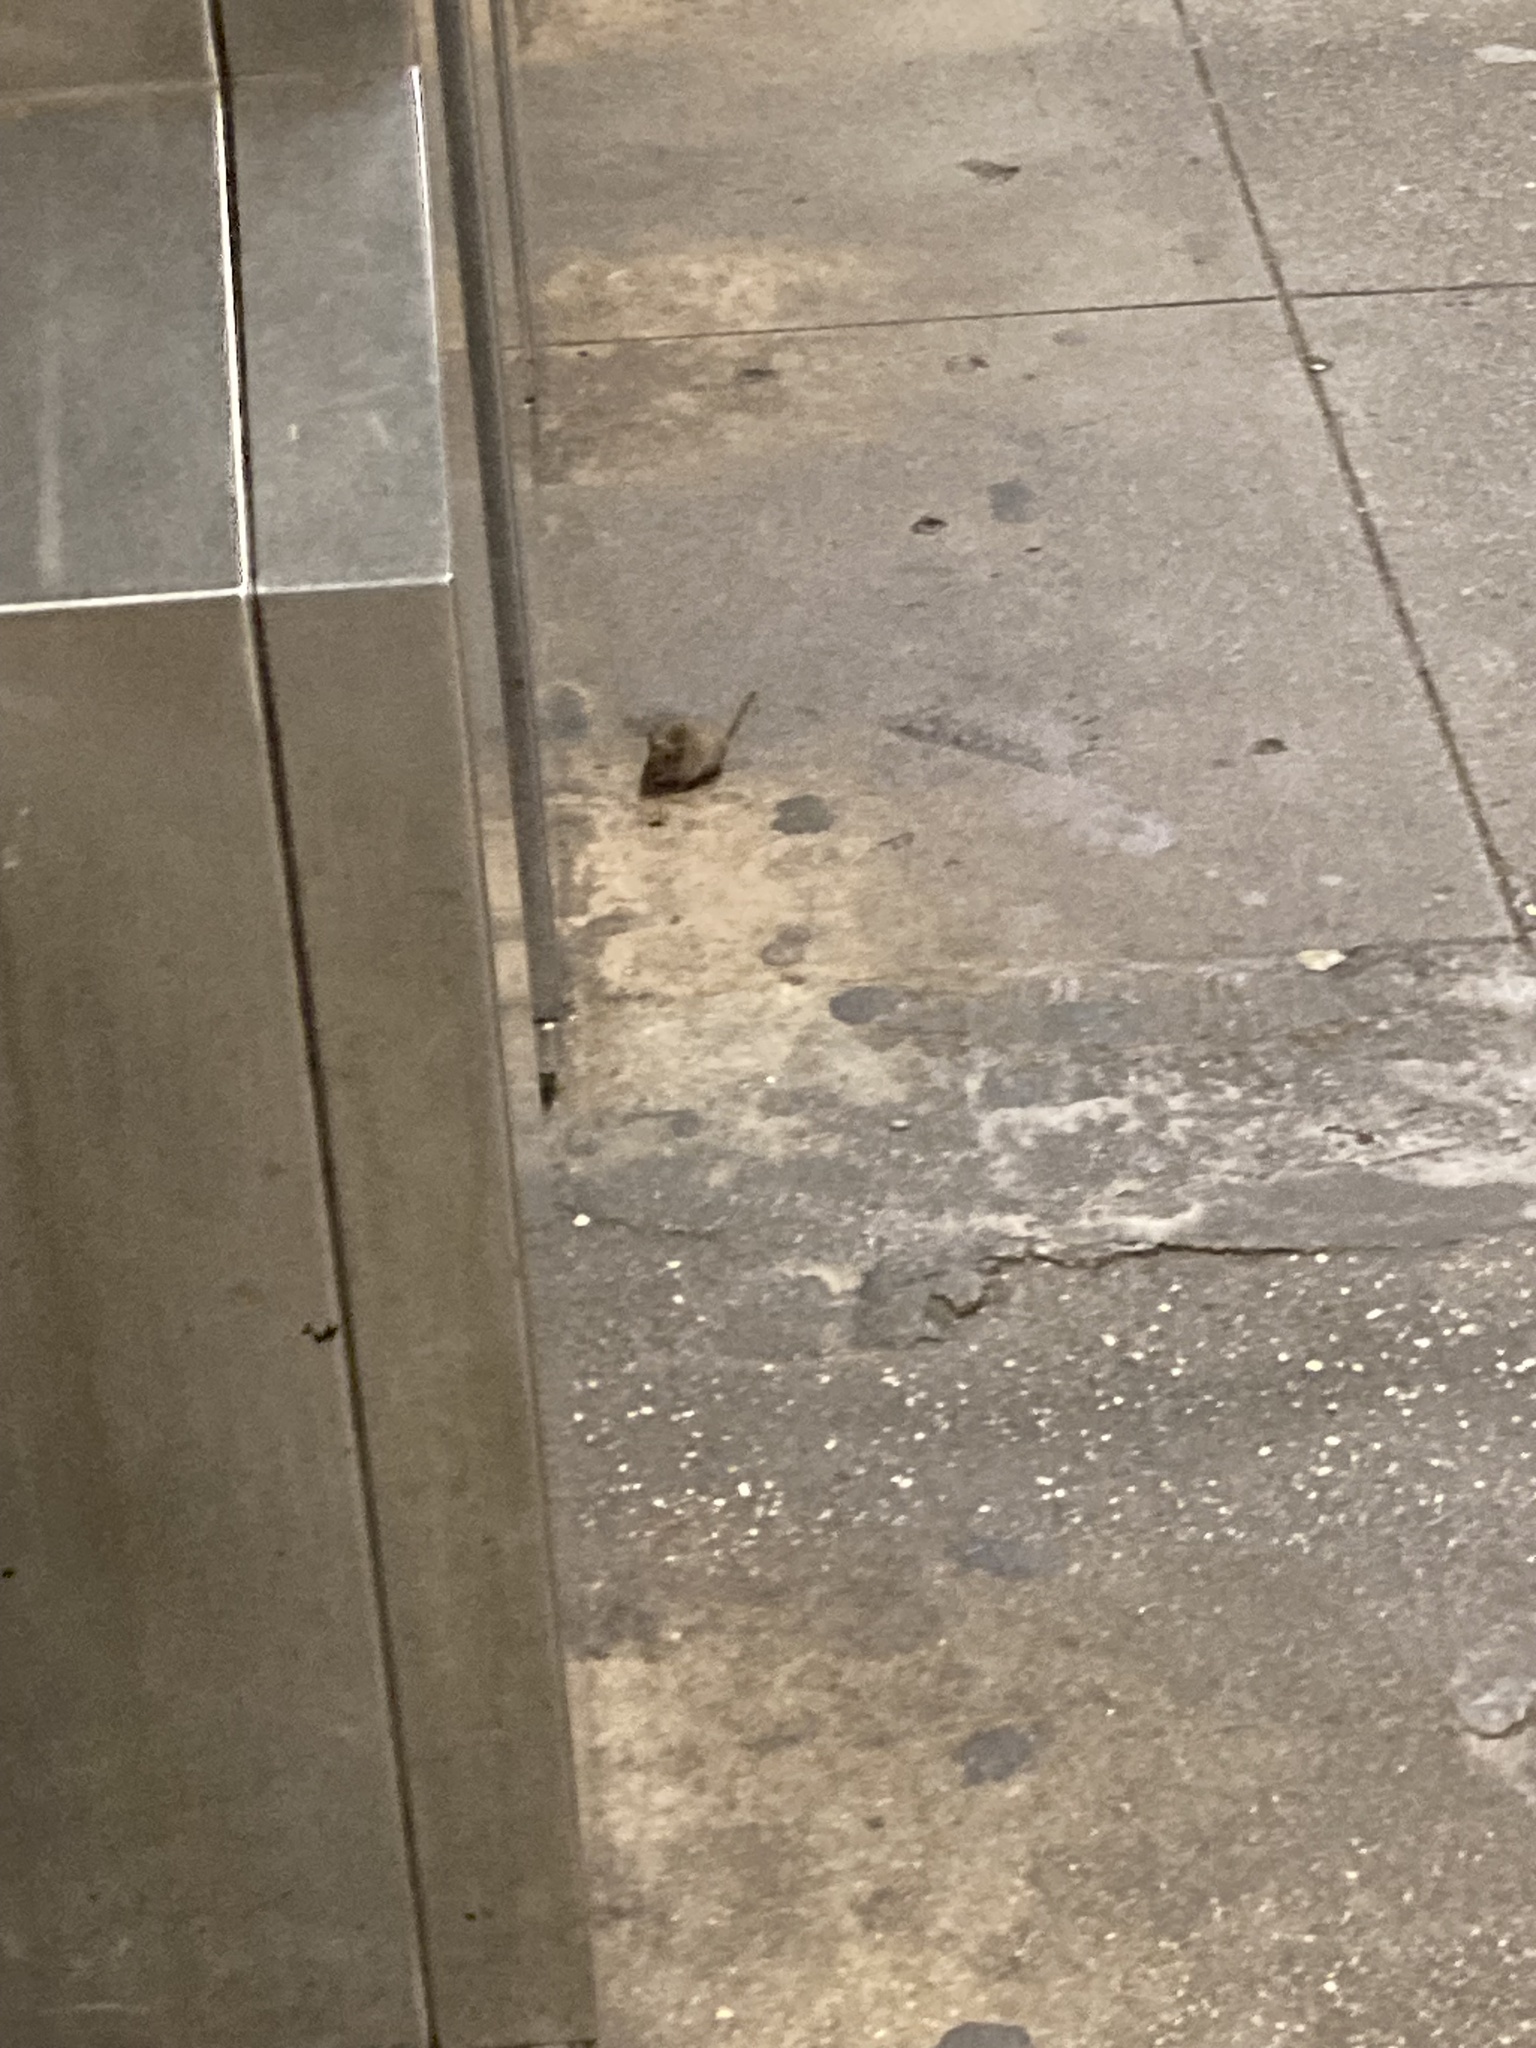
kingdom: Animalia
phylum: Chordata
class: Mammalia
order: Rodentia
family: Muridae
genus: Mus
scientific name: Mus musculus
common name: House mouse
